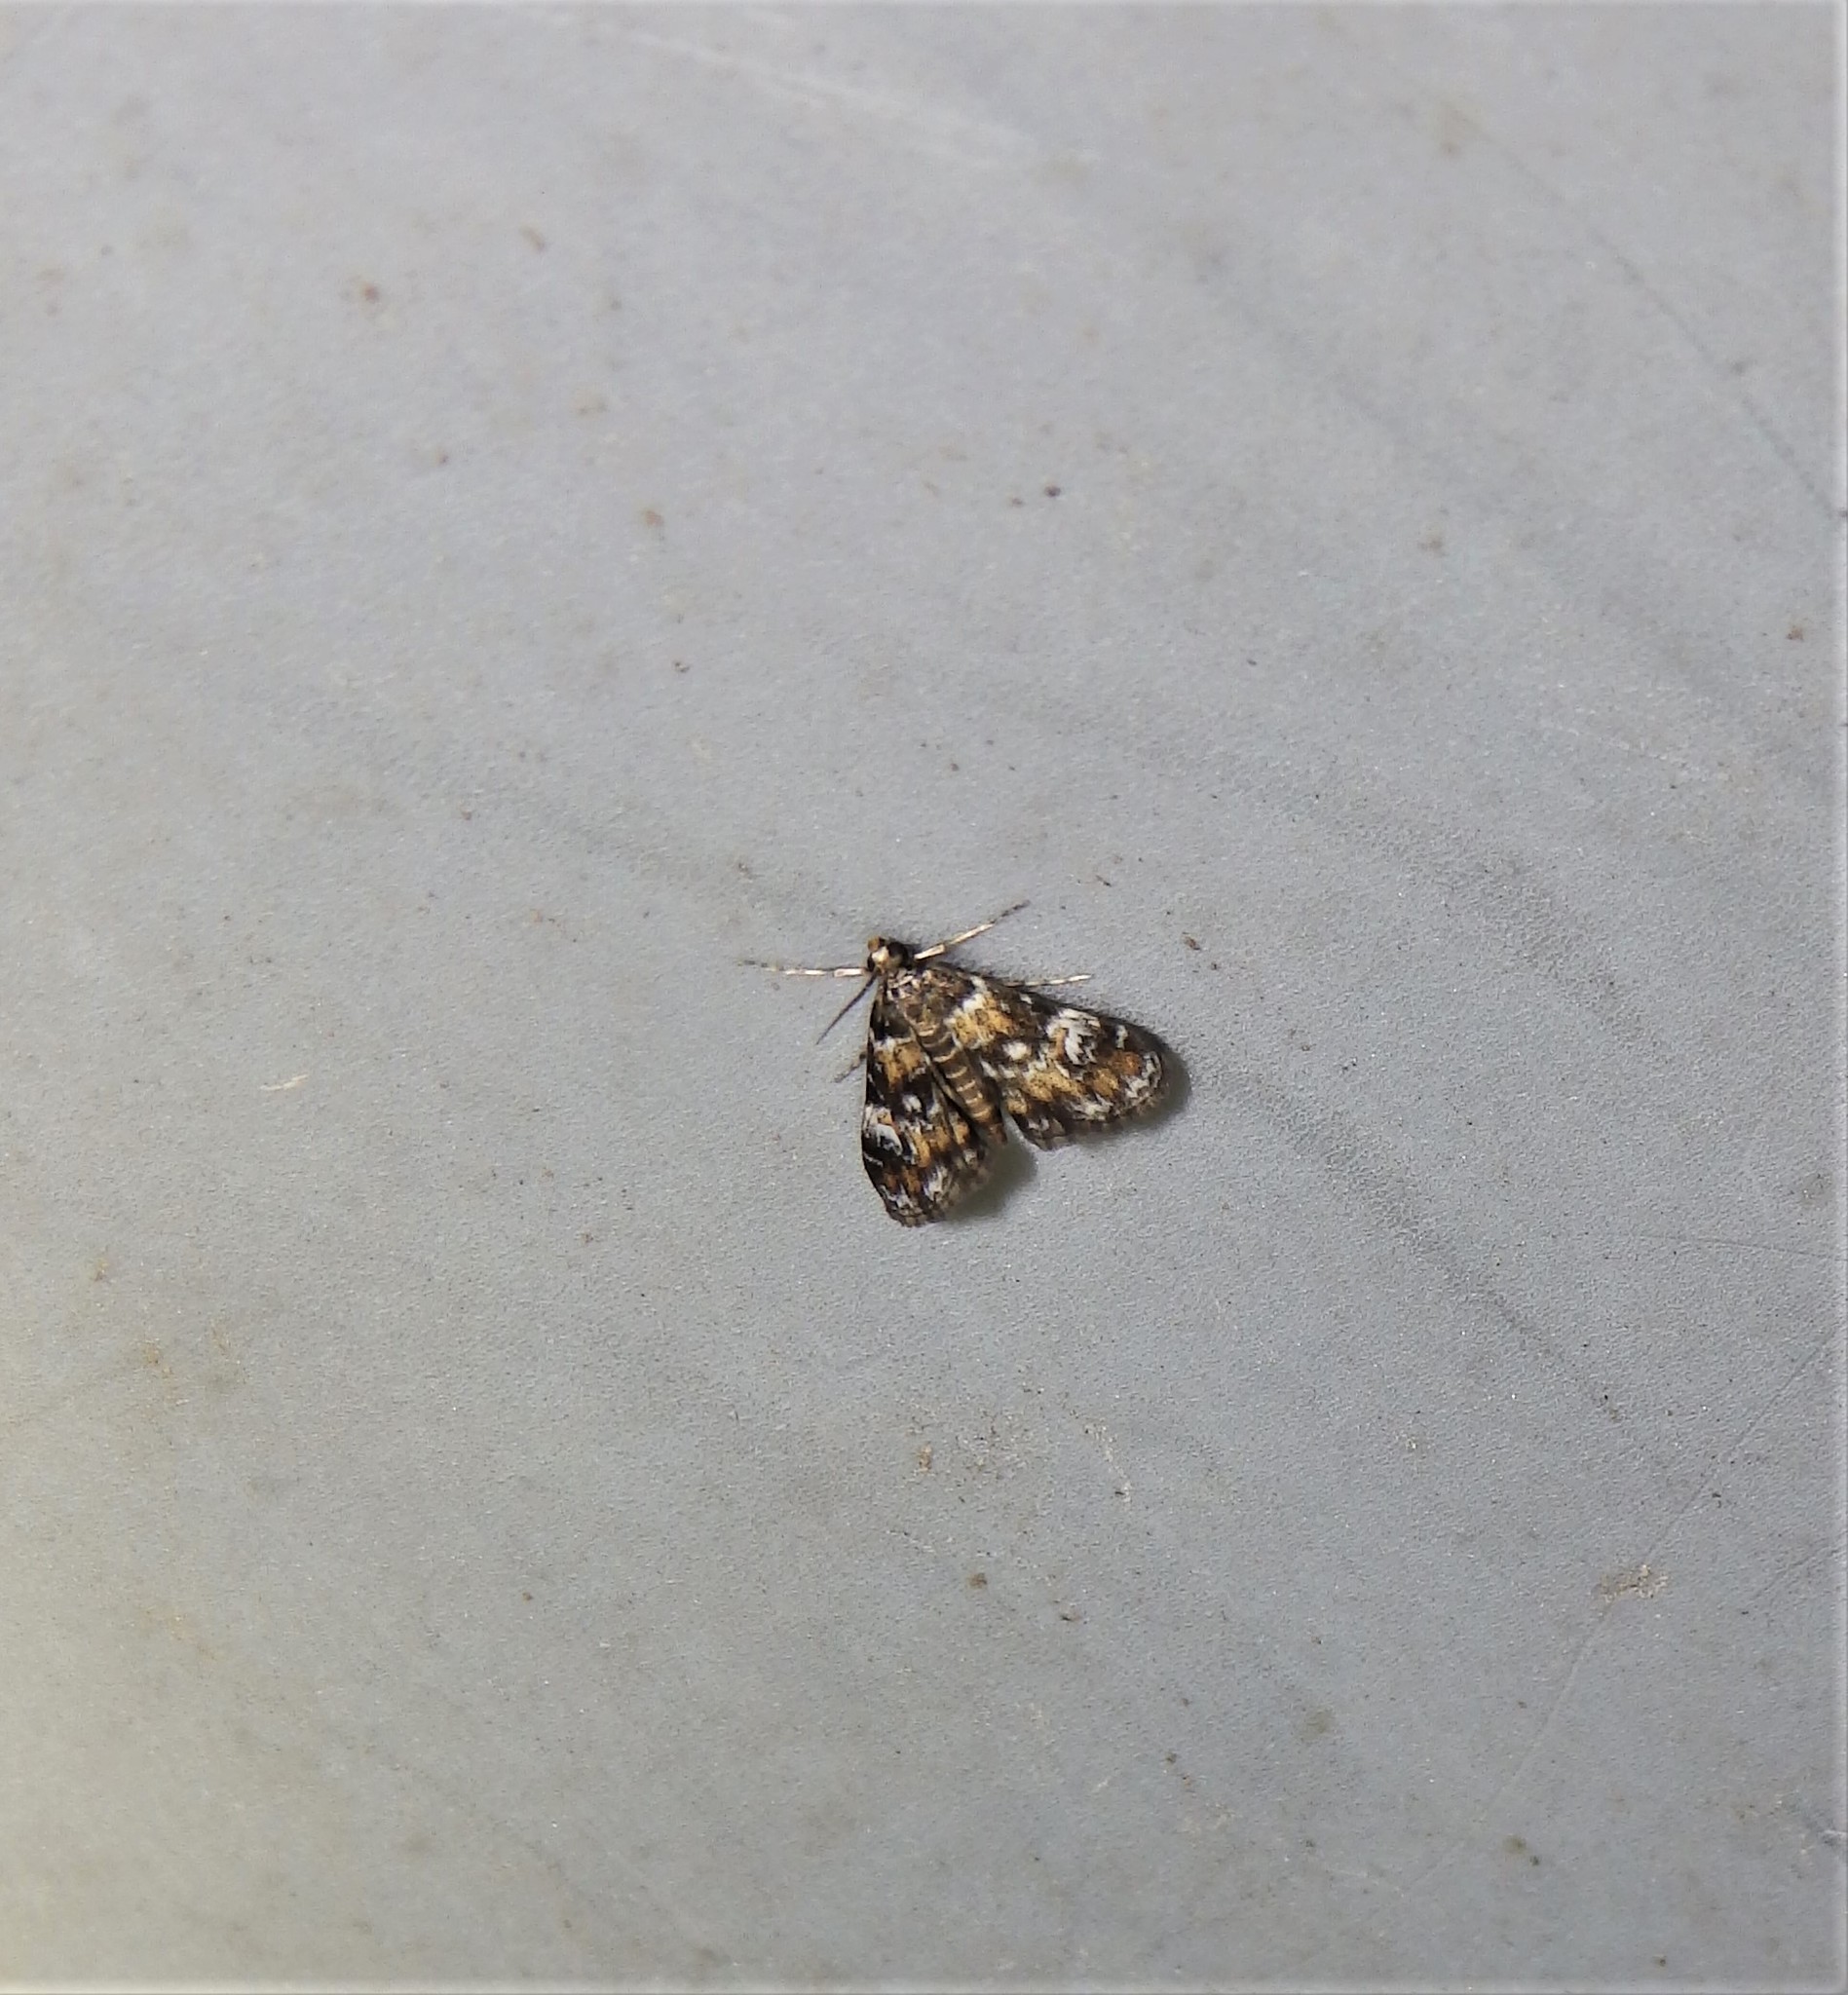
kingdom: Animalia
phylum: Arthropoda
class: Insecta
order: Lepidoptera
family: Crambidae
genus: Elophila
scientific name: Elophila obliteralis
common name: Waterlily leafcutter moth
